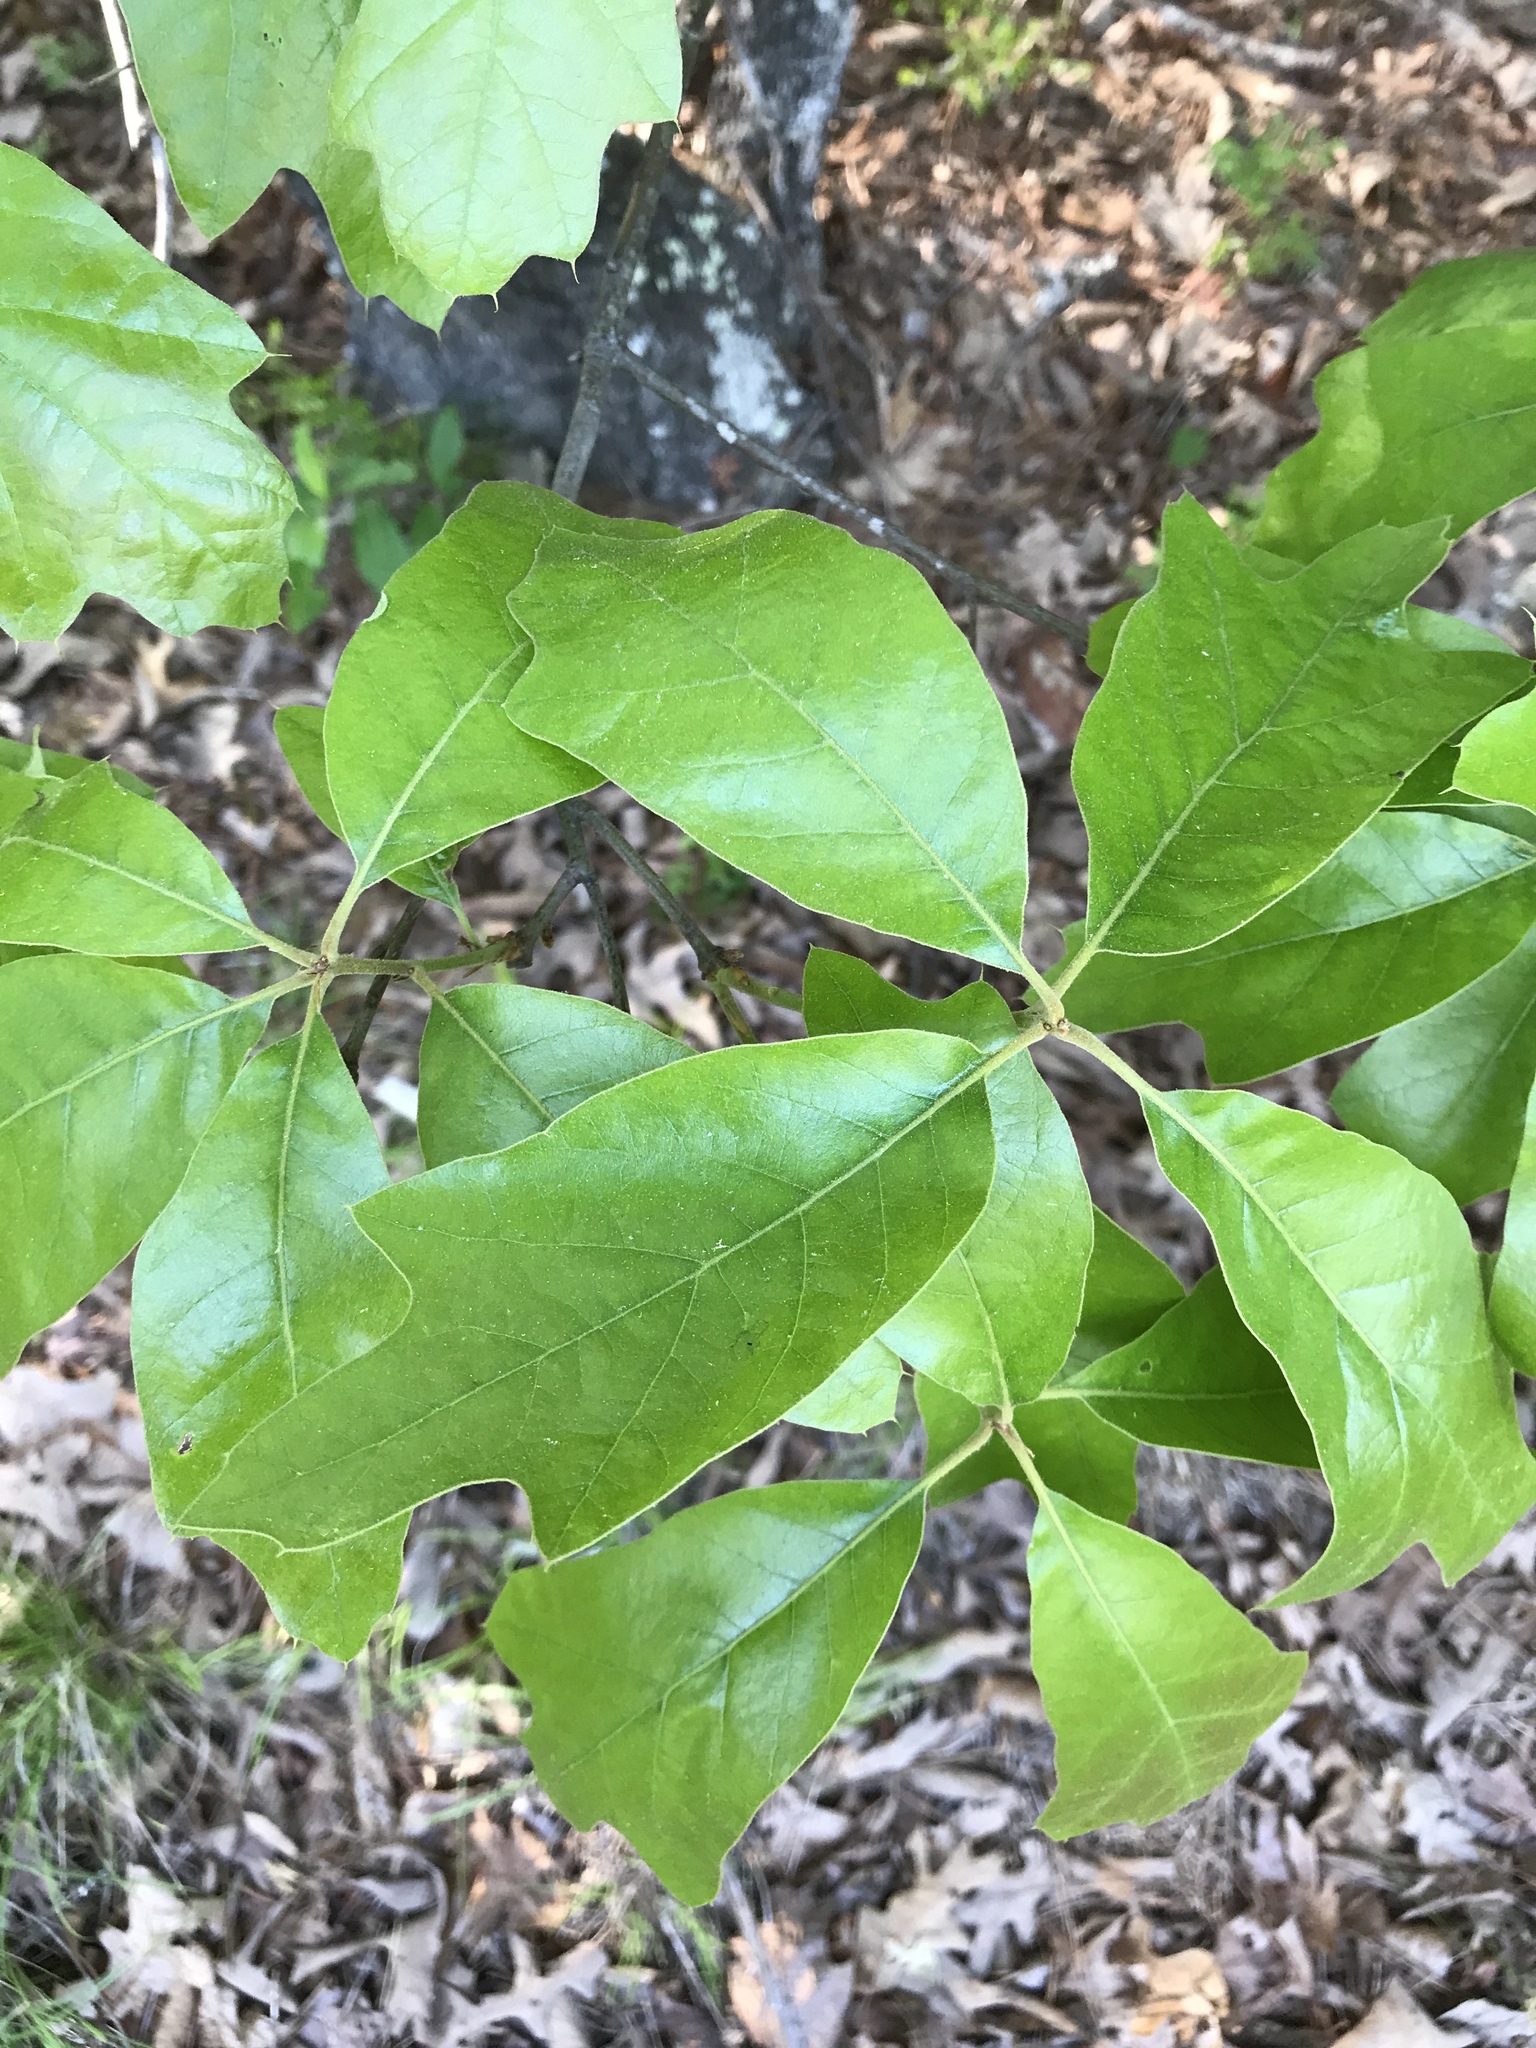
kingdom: Plantae
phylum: Tracheophyta
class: Magnoliopsida
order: Fagales
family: Fagaceae
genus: Quercus
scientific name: Quercus falcata
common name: Southern red oak
